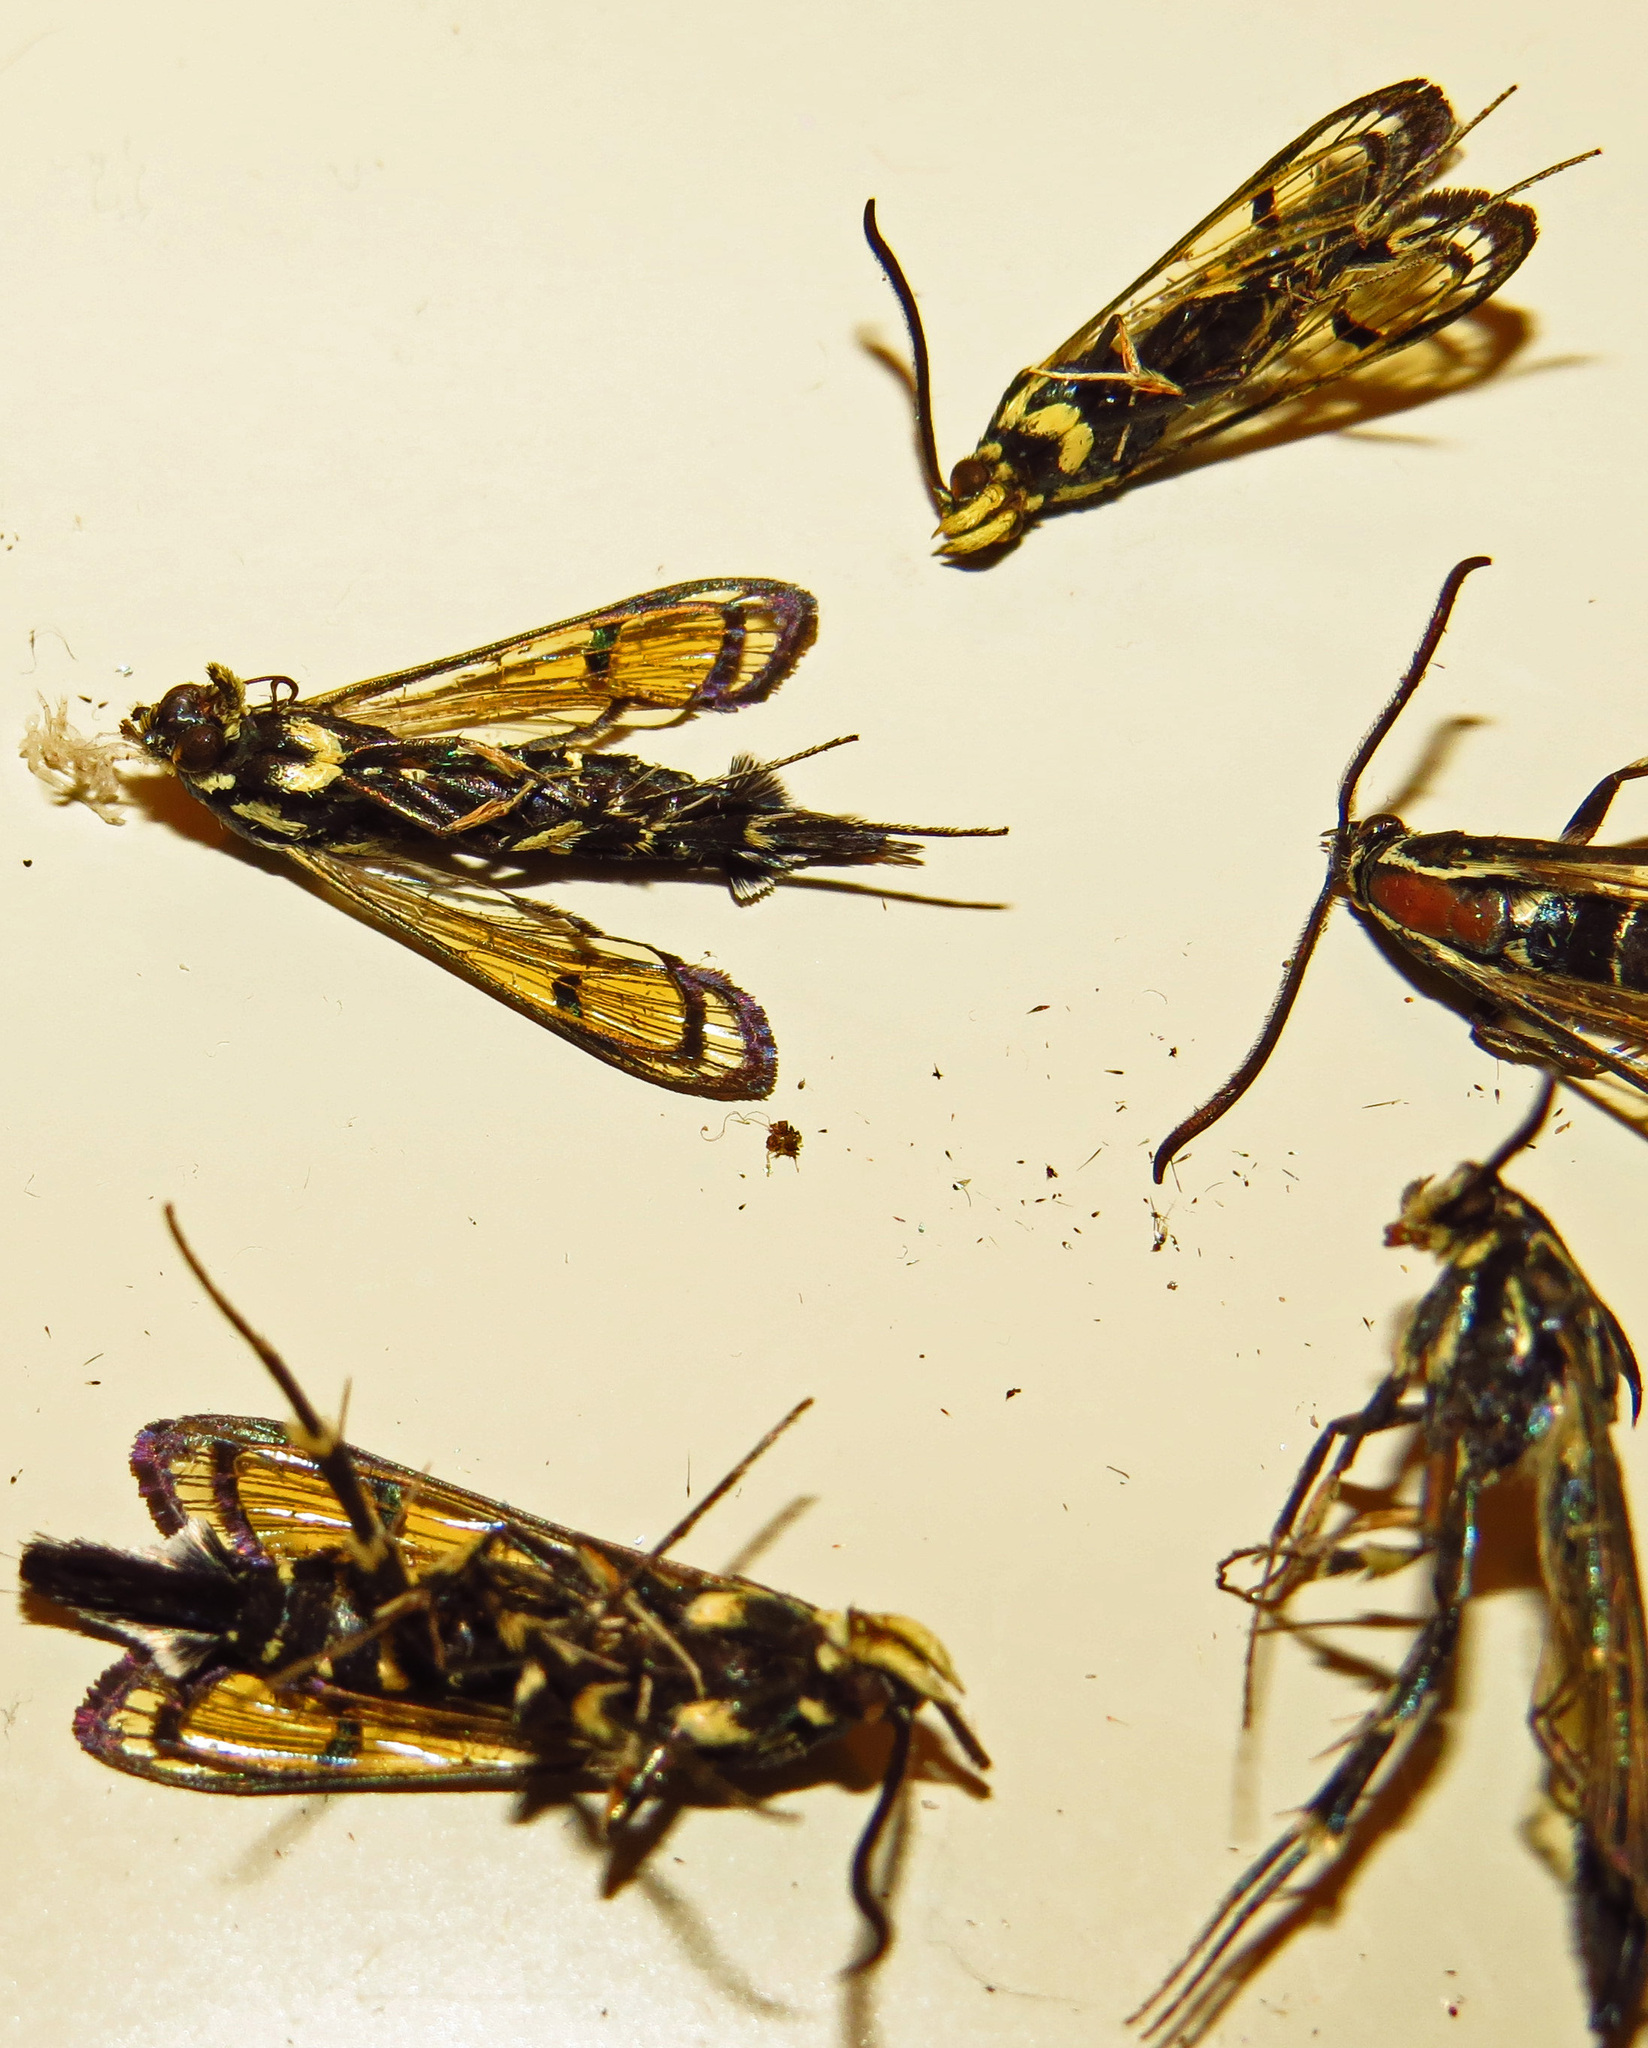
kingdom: Animalia
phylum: Arthropoda
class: Insecta
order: Lepidoptera
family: Sesiidae
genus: Synanthedon
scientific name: Synanthedon exitiosa
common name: Peachtree borer moth
